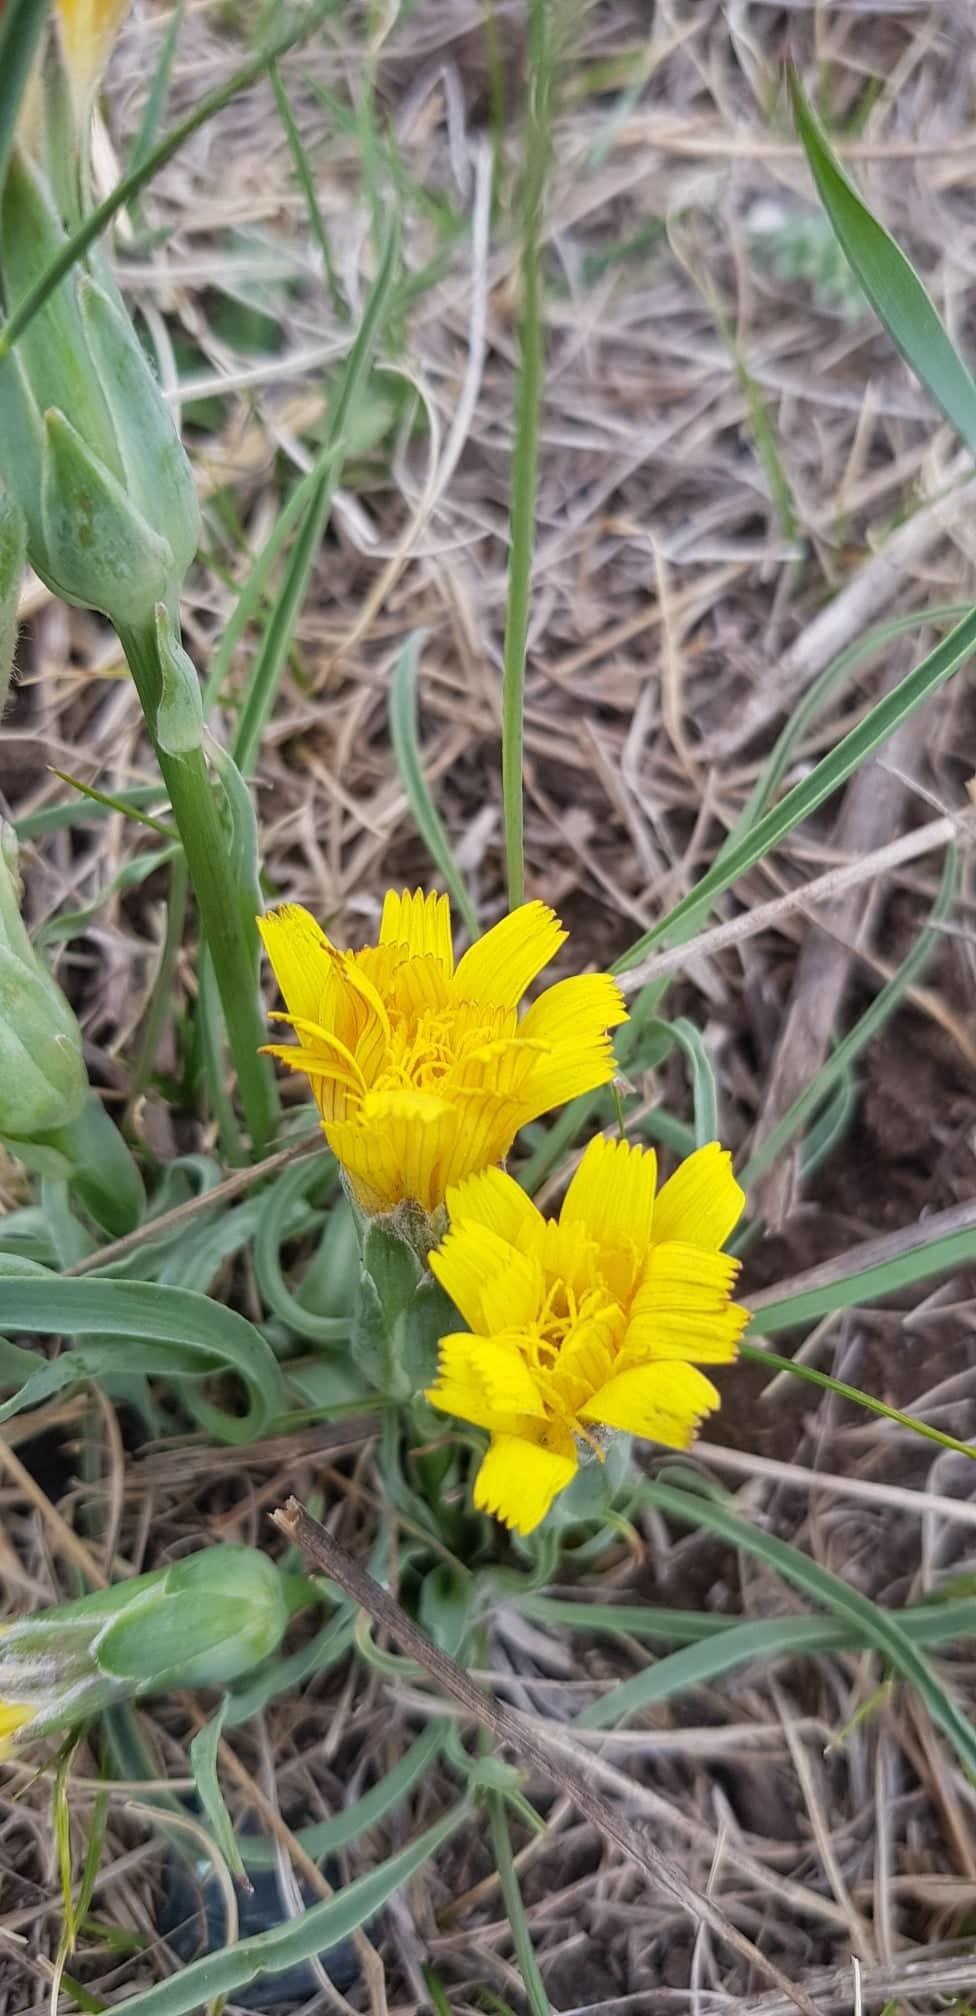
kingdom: Plantae
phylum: Tracheophyta
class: Magnoliopsida
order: Asterales
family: Asteraceae
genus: Takhtajaniantha
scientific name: Takhtajaniantha austriaca
